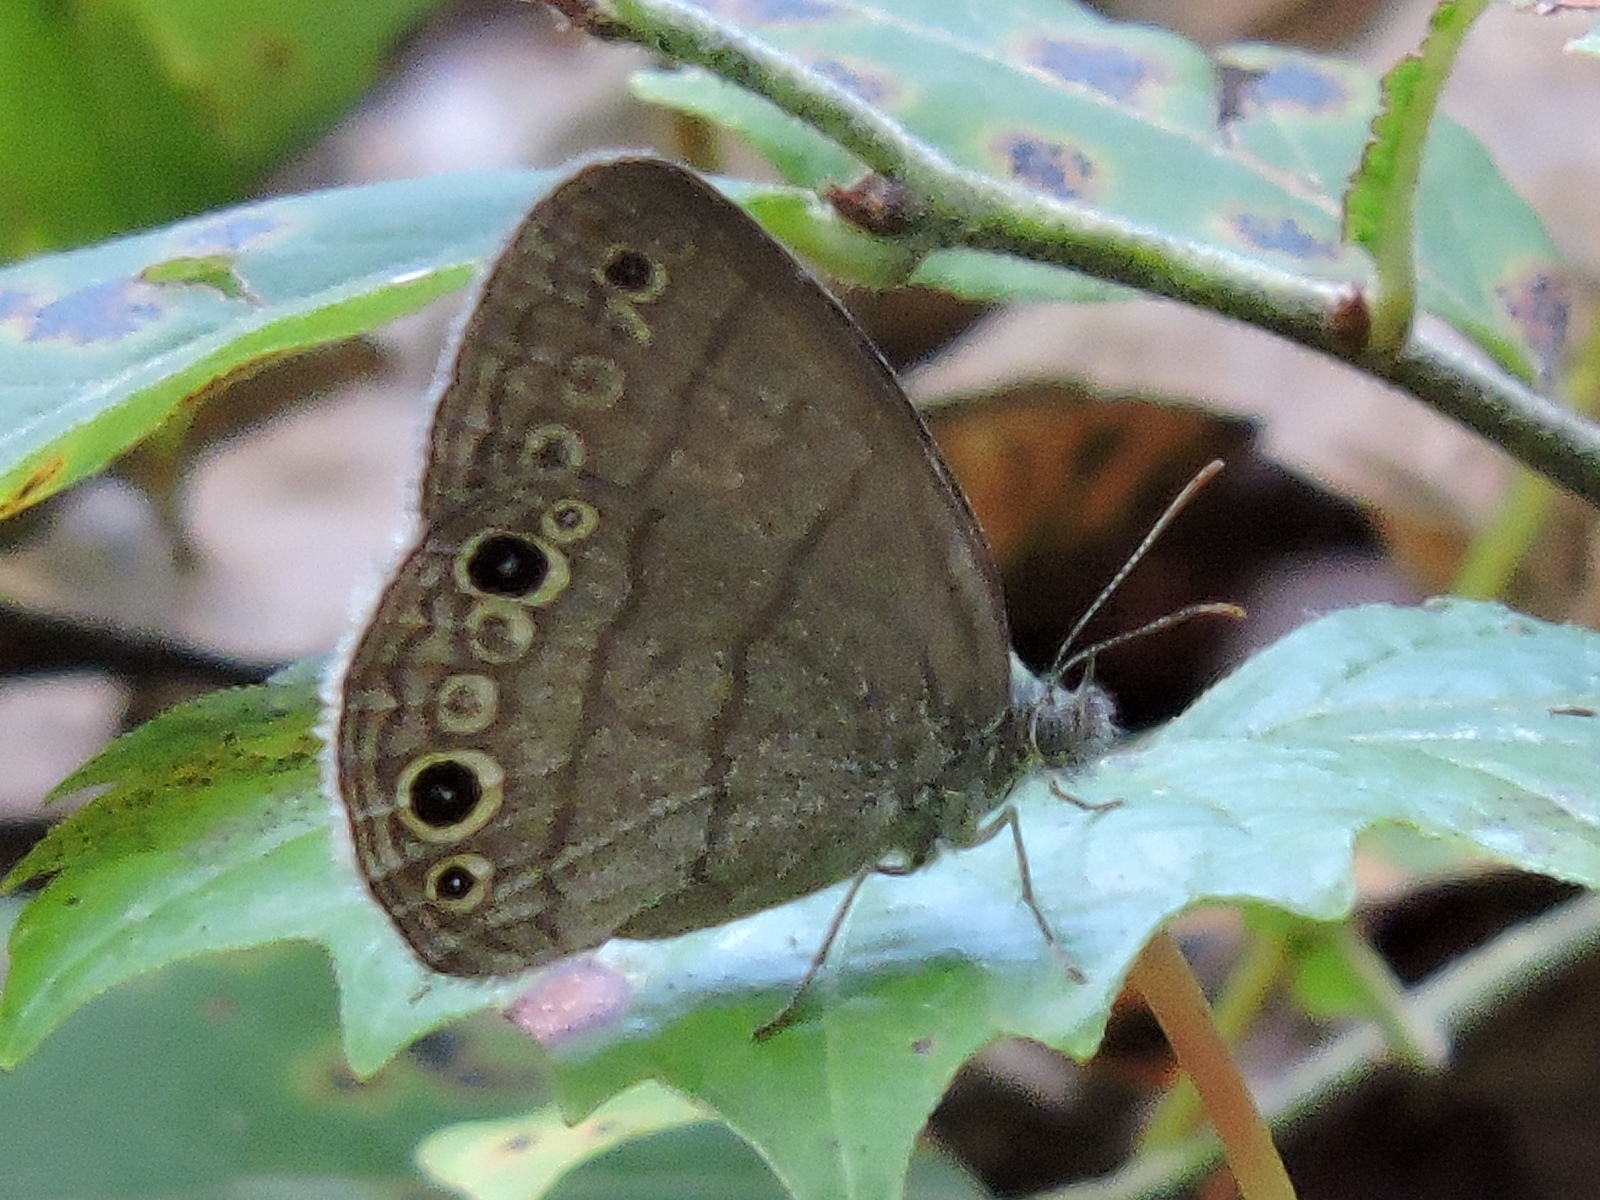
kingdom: Animalia
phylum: Arthropoda
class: Insecta
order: Lepidoptera
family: Nymphalidae
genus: Hermeuptychia
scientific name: Hermeuptychia hermes
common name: Hermes satyr
